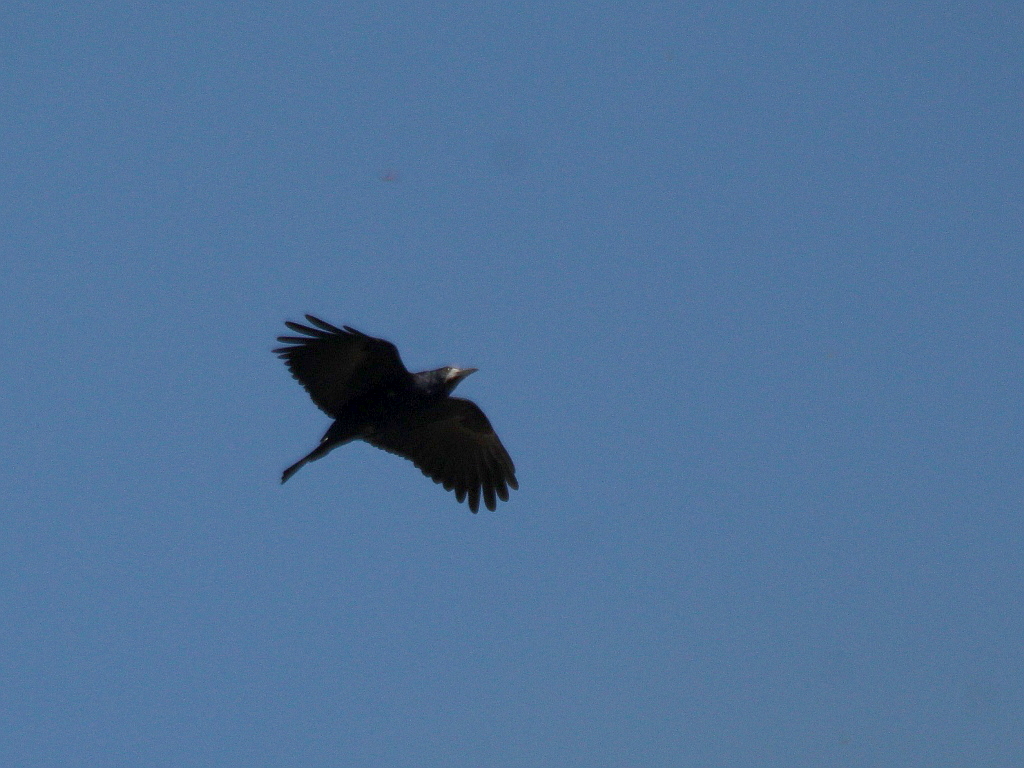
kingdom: Animalia
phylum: Chordata
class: Aves
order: Passeriformes
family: Corvidae
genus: Corvus
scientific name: Corvus frugilegus
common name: Rook
